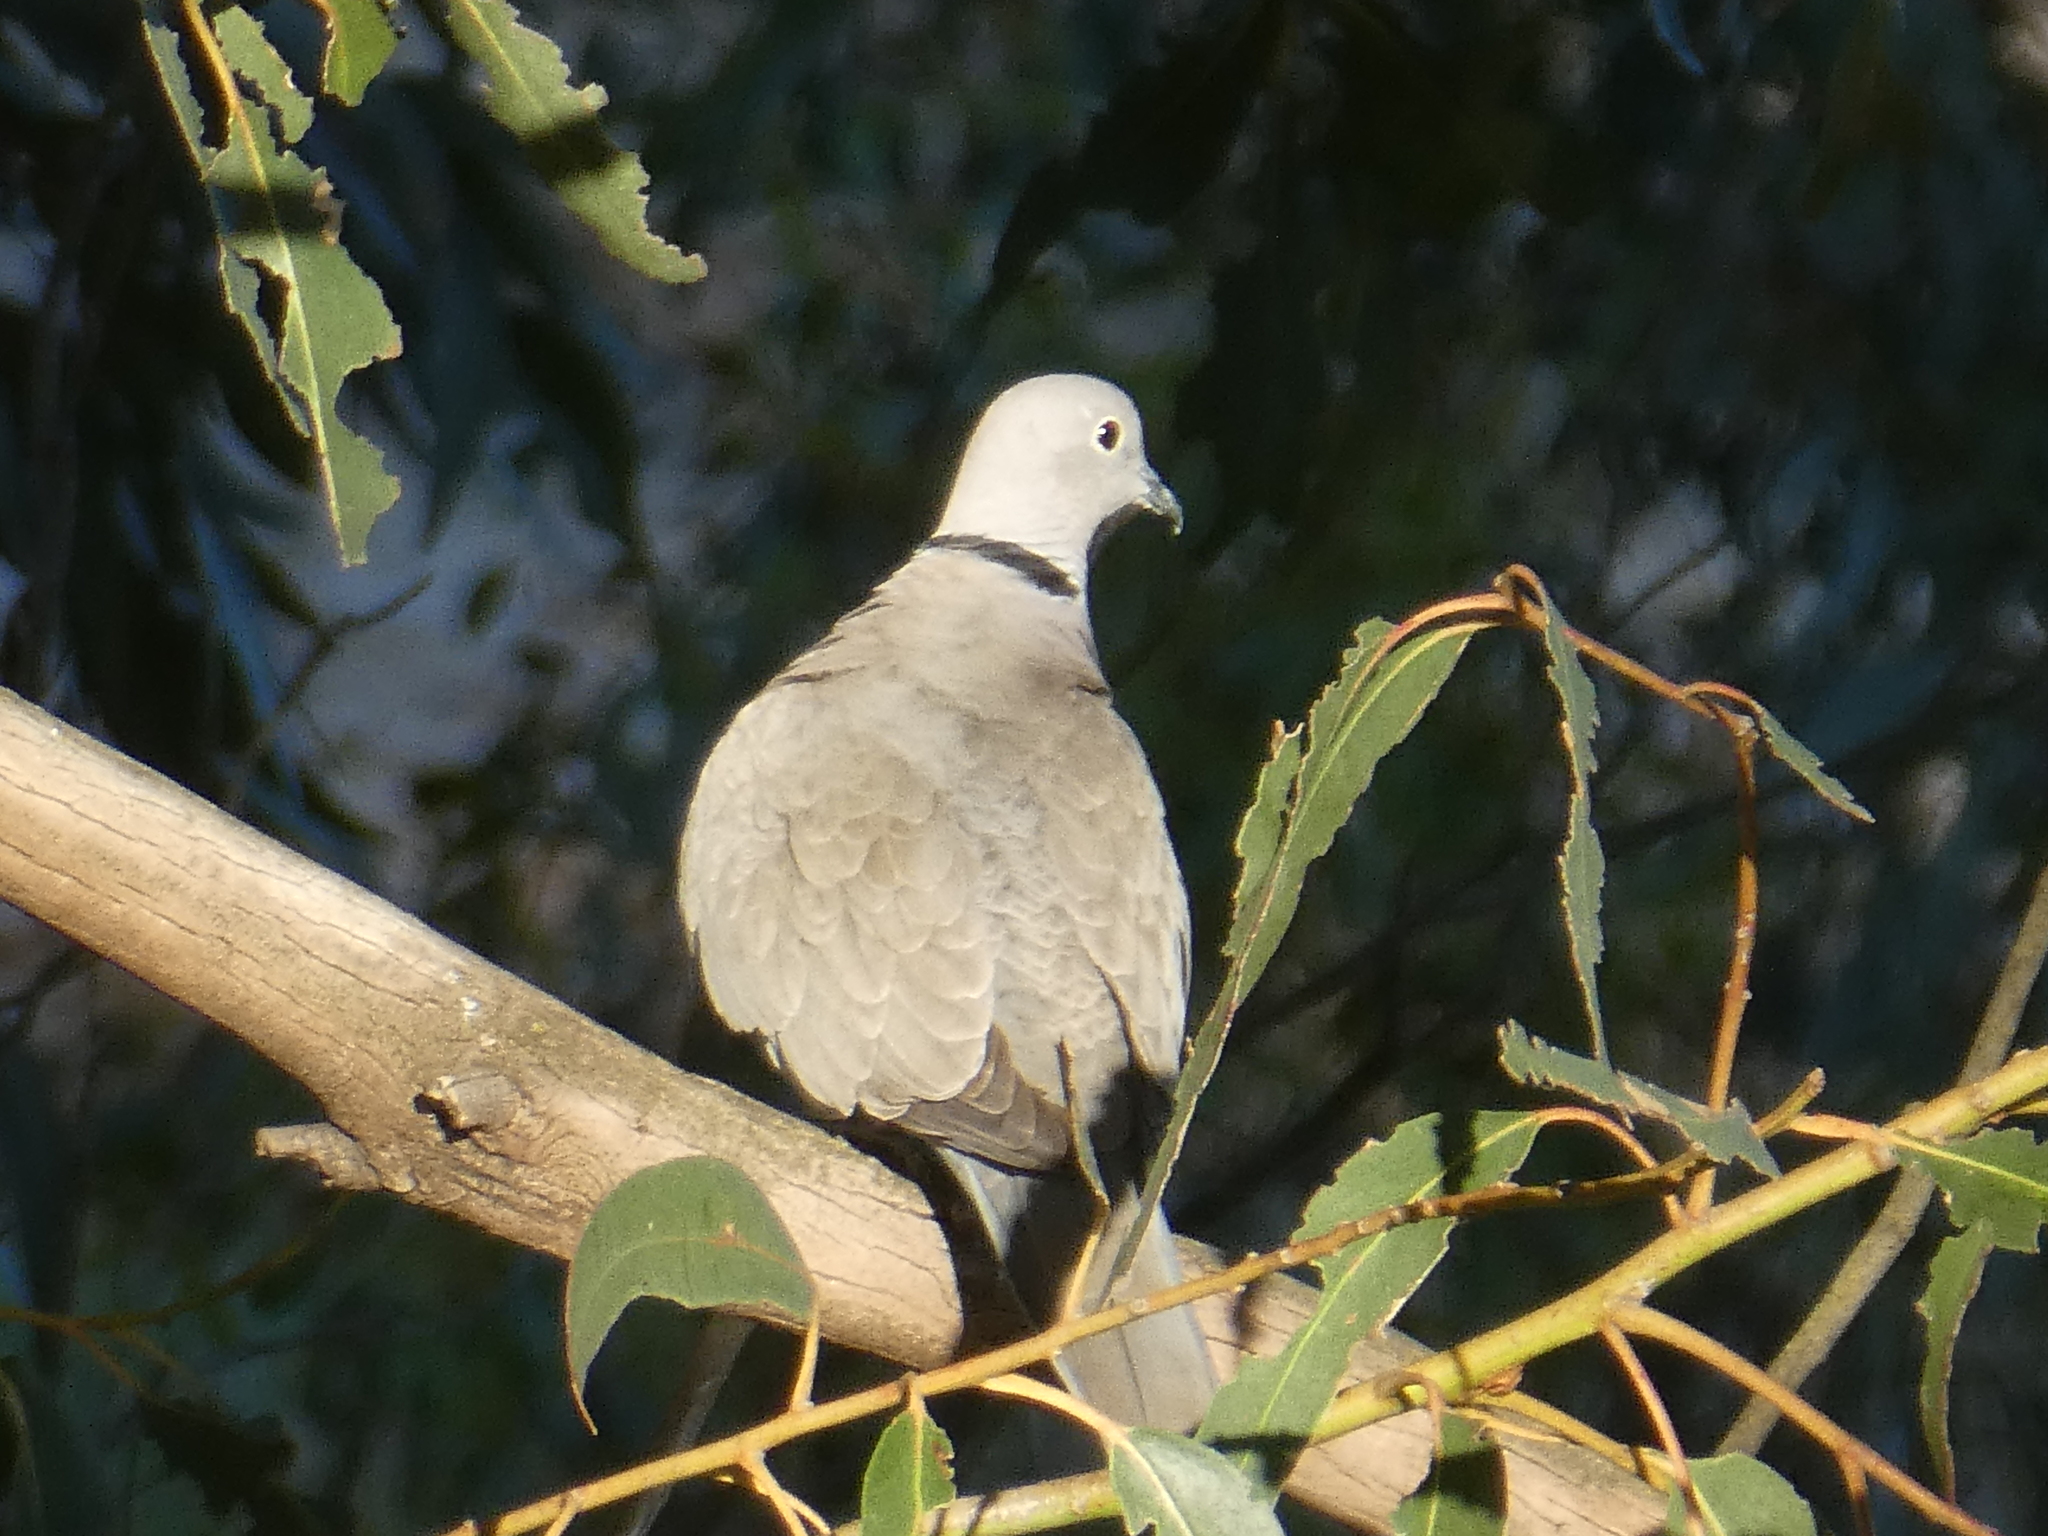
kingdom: Animalia
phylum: Chordata
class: Aves
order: Columbiformes
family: Columbidae
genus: Streptopelia
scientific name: Streptopelia decaocto
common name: Eurasian collared dove
